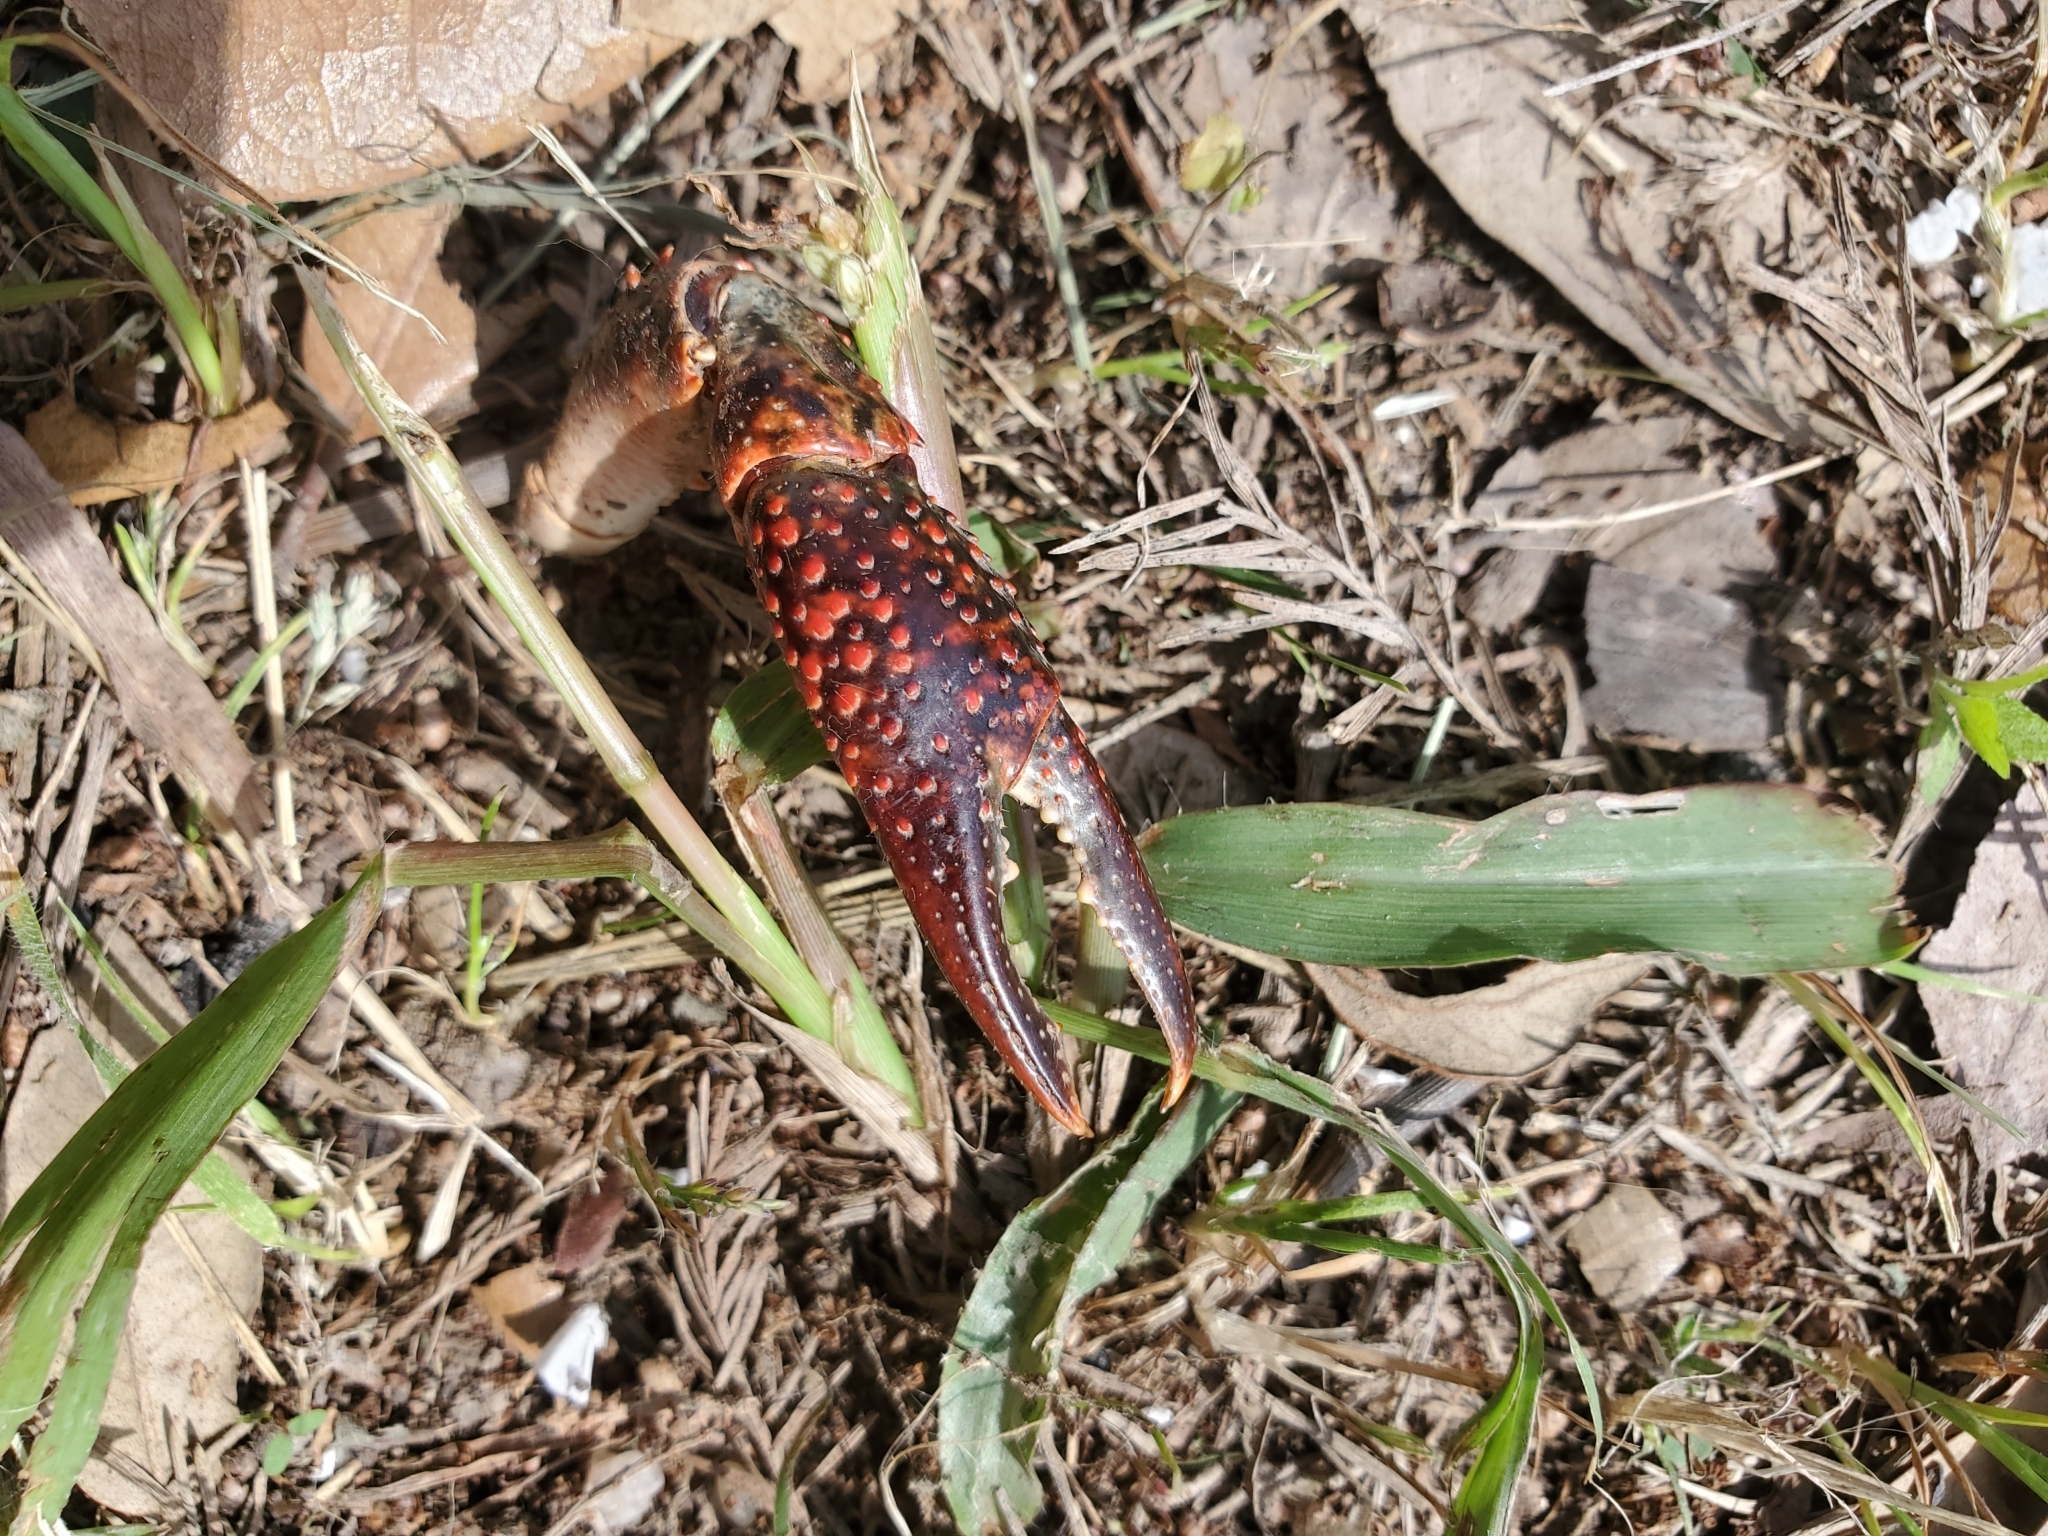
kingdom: Animalia
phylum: Arthropoda
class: Malacostraca
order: Decapoda
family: Cambaridae
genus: Procambarus
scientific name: Procambarus clarkii
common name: Red swamp crayfish
